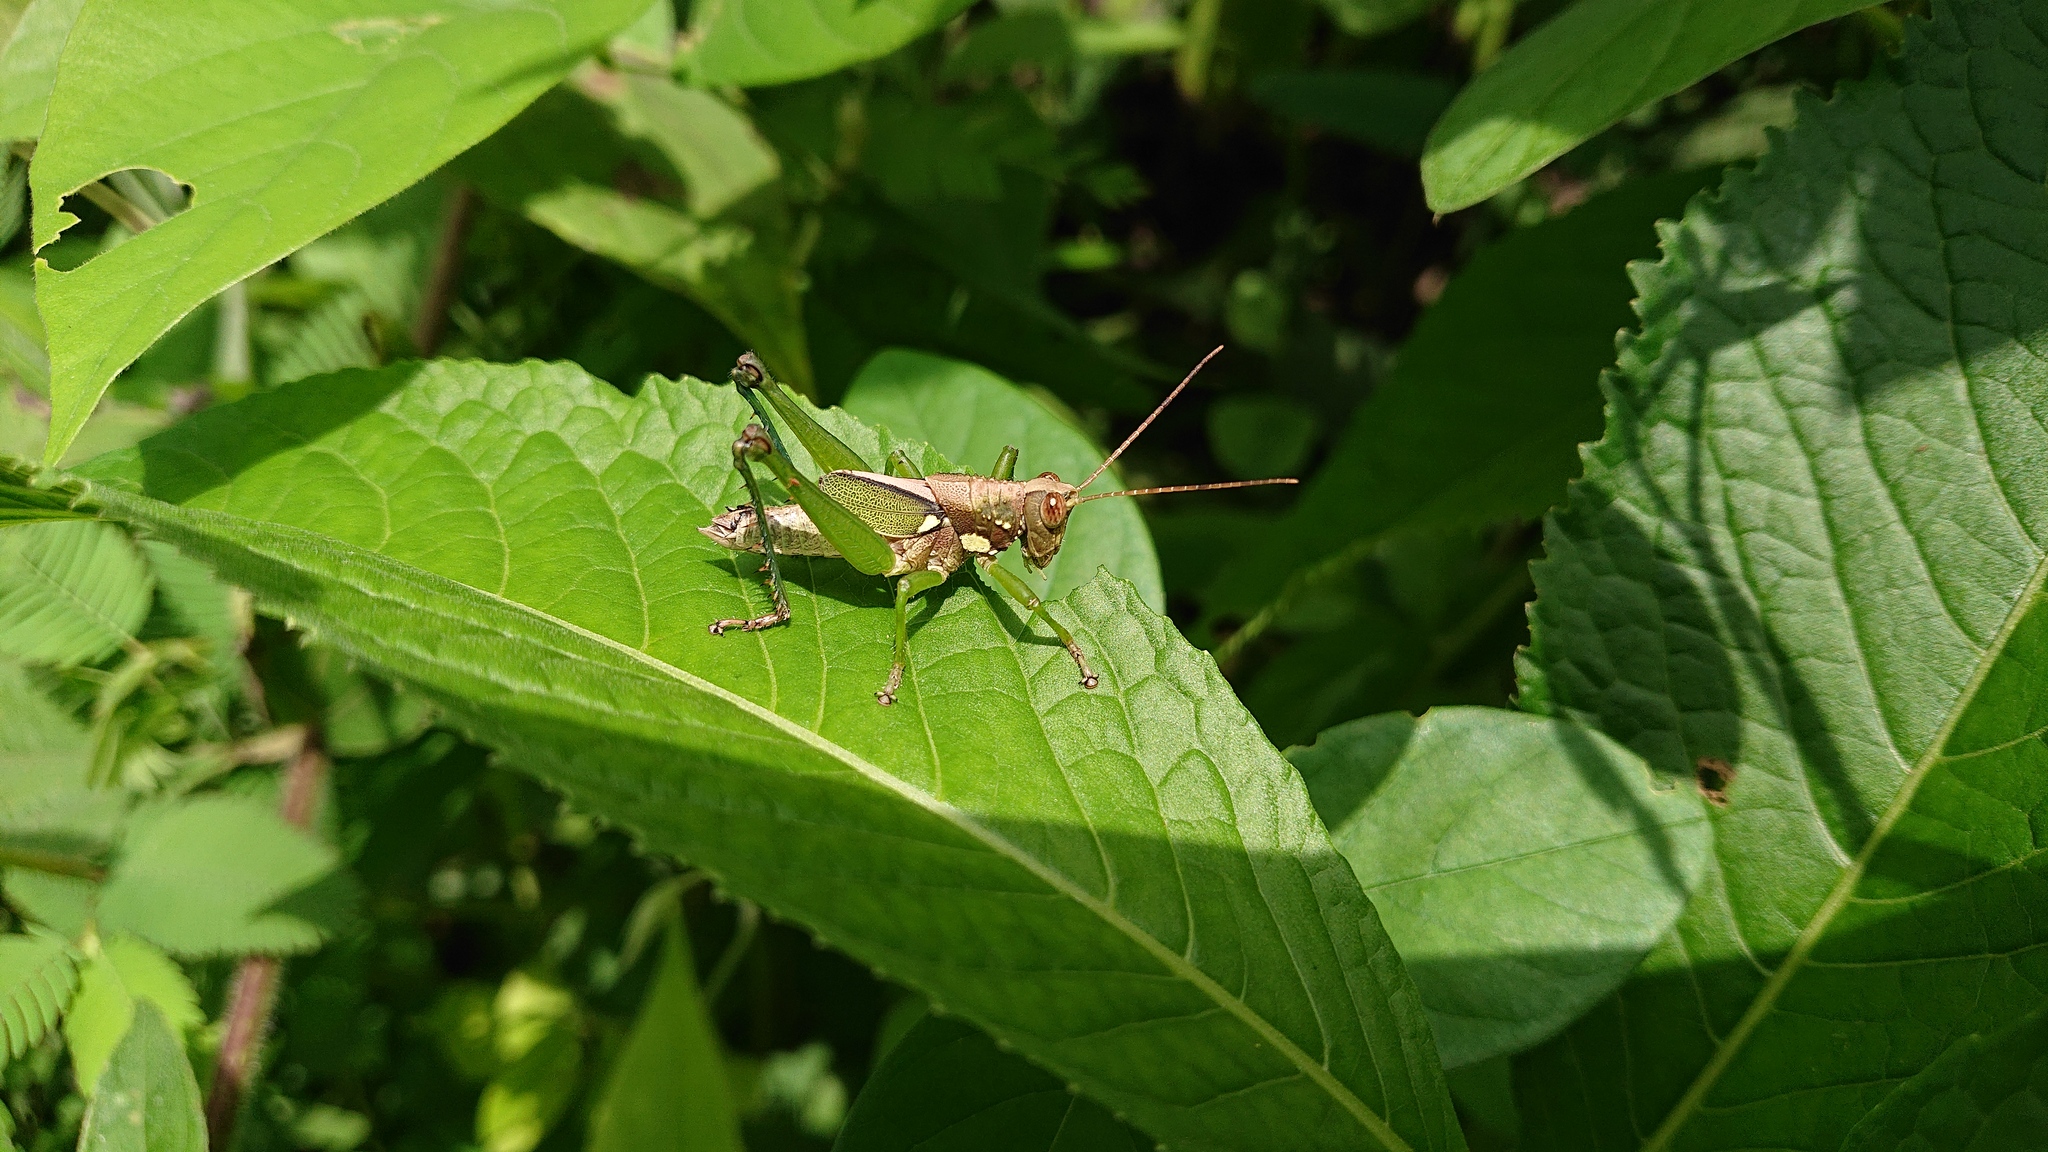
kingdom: Animalia
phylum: Arthropoda
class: Insecta
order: Orthoptera
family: Romaleidae
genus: Agriacris
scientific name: Agriacris aequatoriana
